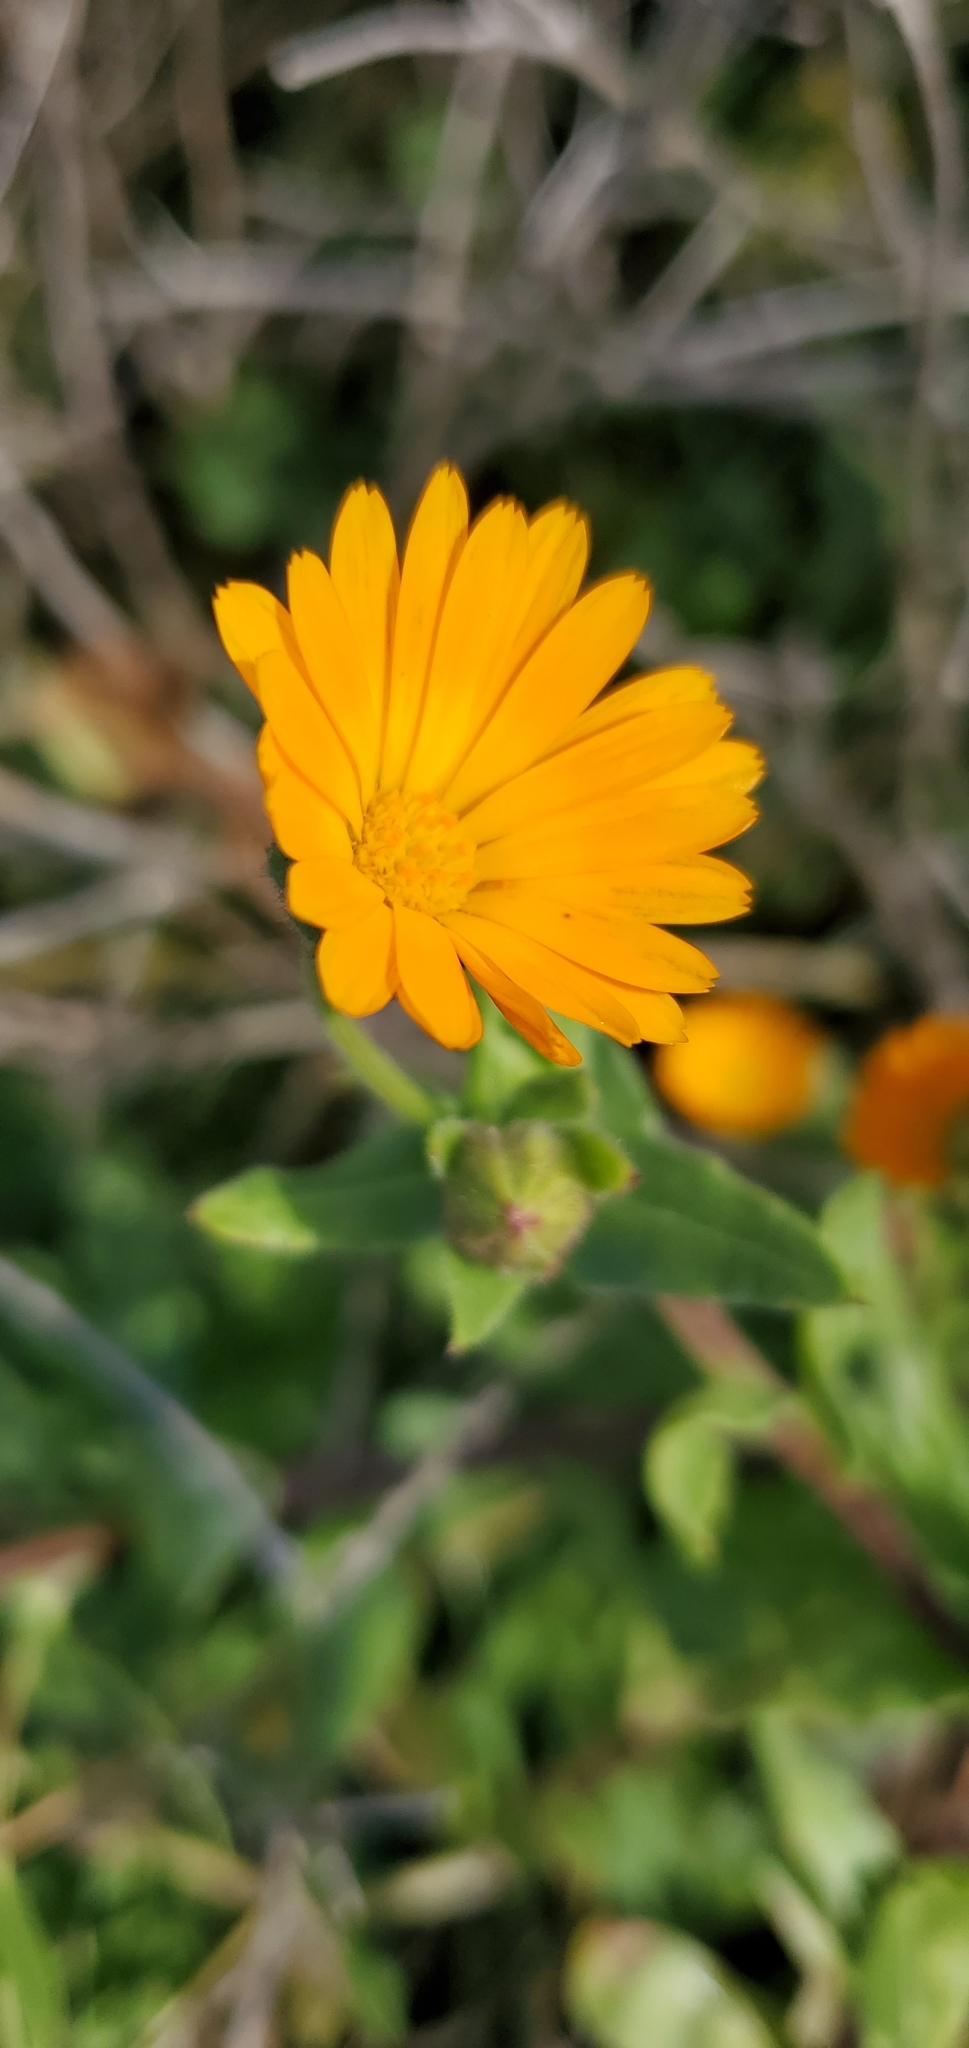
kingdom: Plantae
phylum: Tracheophyta
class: Magnoliopsida
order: Asterales
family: Asteraceae
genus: Calendula
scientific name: Calendula arvensis
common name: Field marigold
